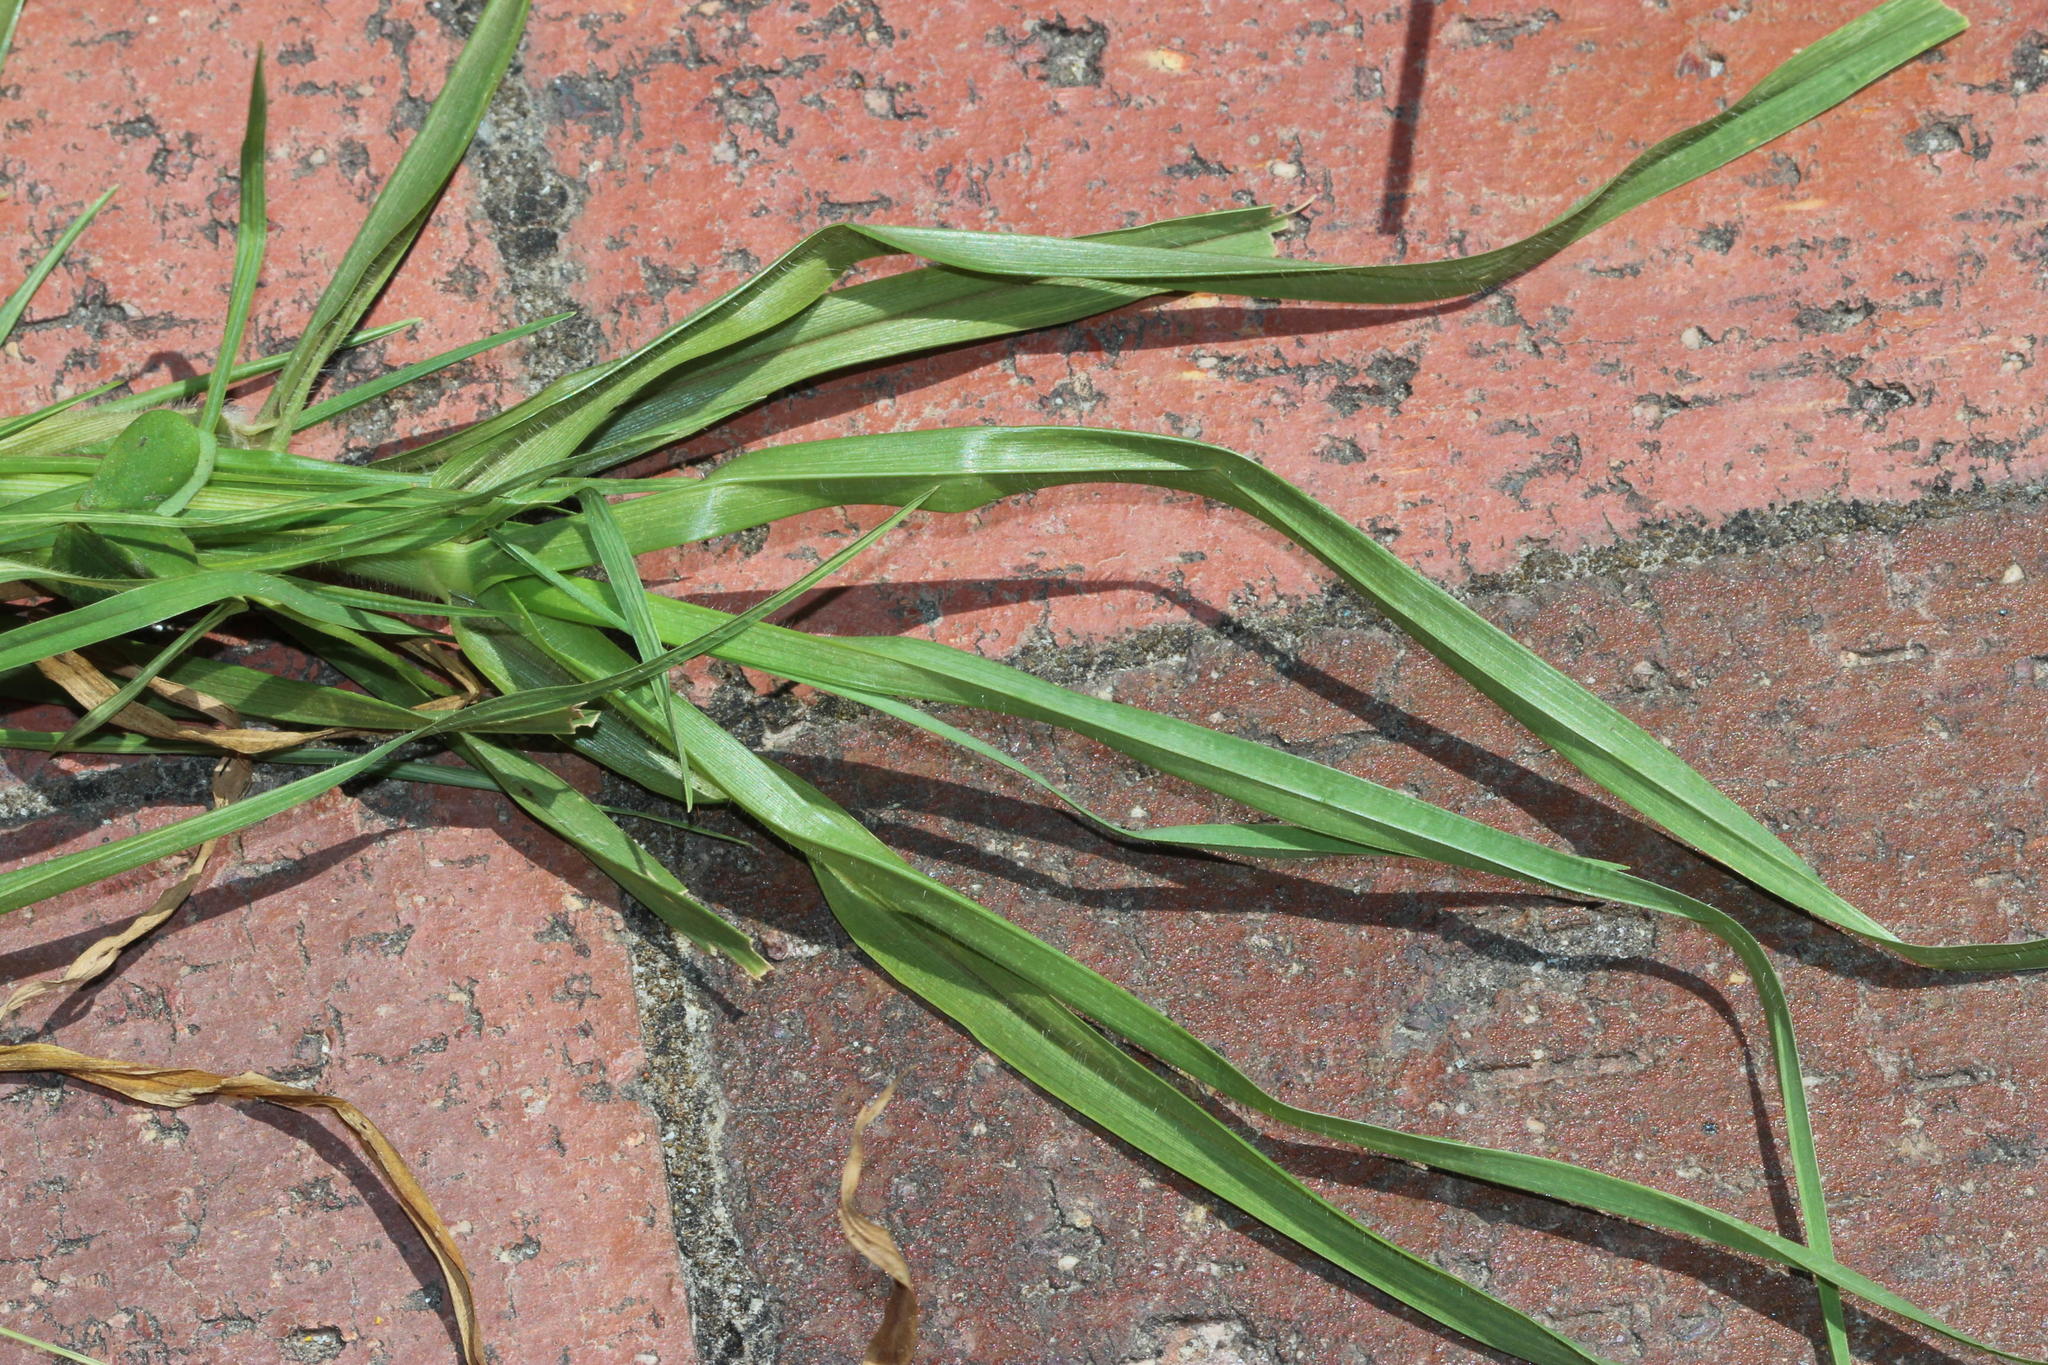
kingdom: Plantae
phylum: Tracheophyta
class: Liliopsida
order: Poales
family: Poaceae
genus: Cenchrus
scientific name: Cenchrus clandestinus
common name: Kikuyugrass
